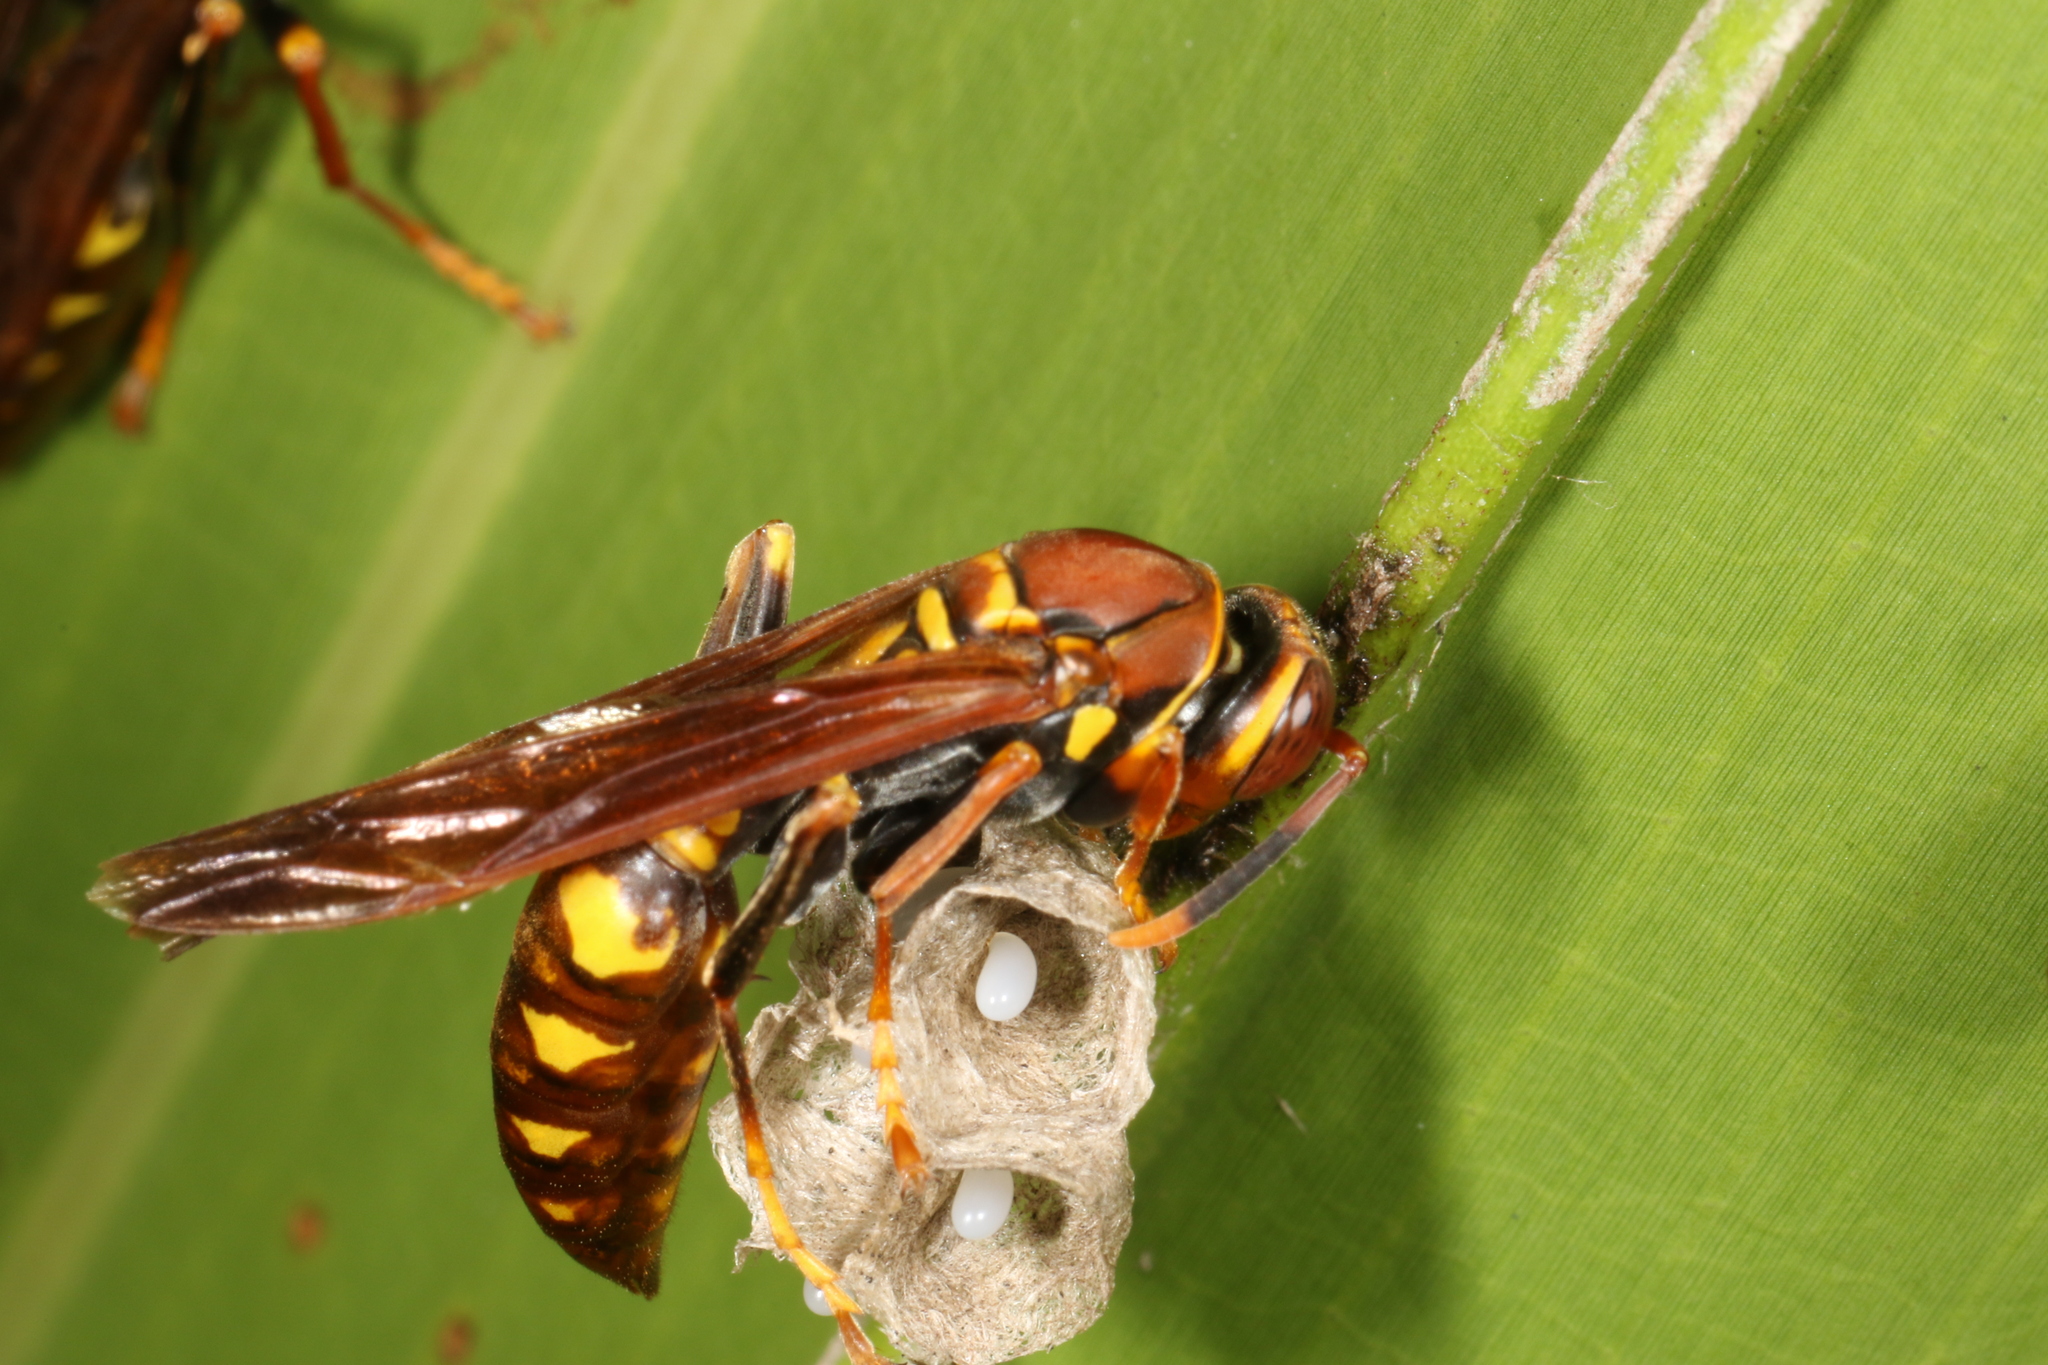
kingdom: Animalia
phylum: Arthropoda
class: Insecta
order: Hymenoptera
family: Eumenidae
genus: Polistes
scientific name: Polistes versicolor
